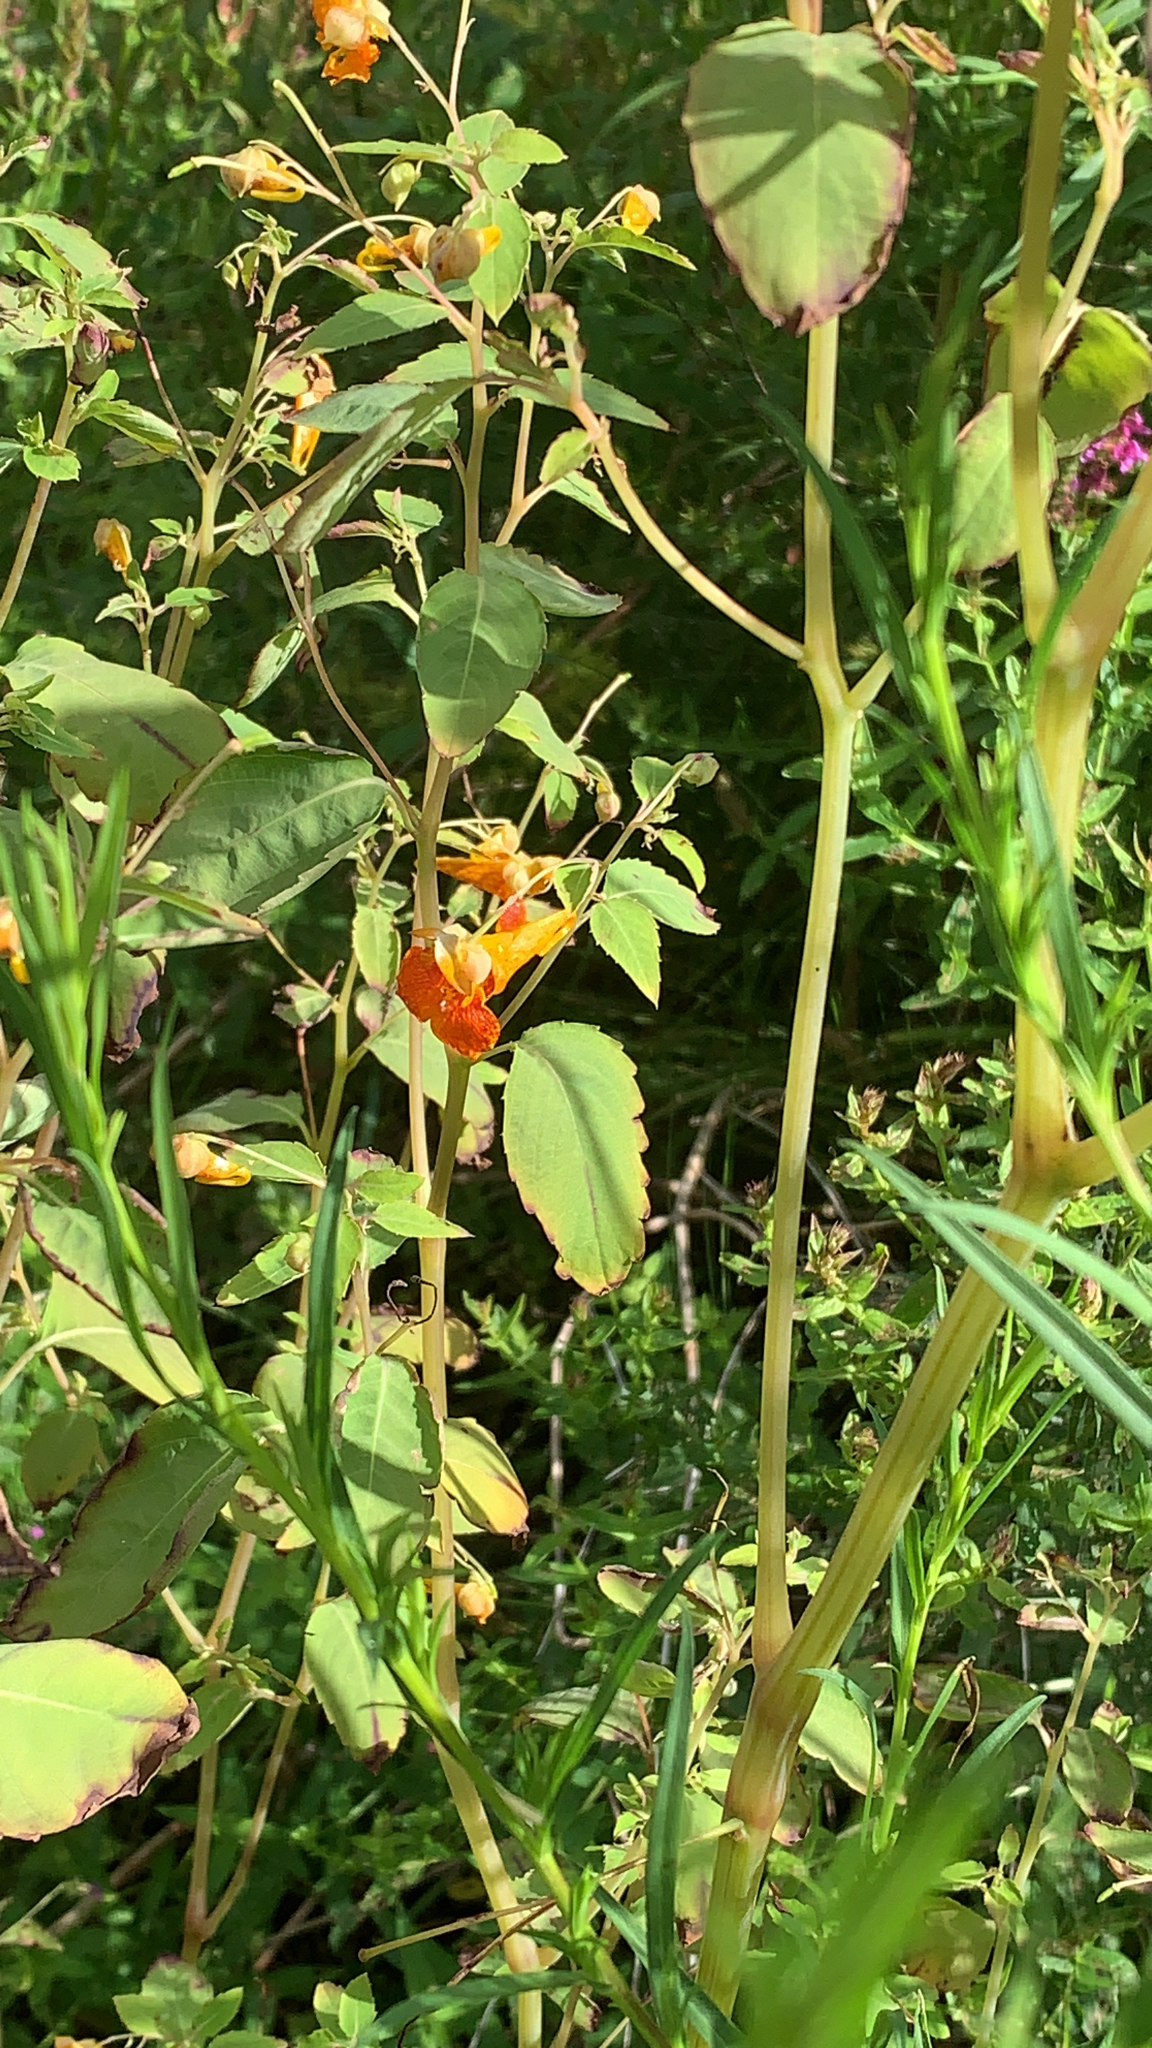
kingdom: Plantae
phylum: Tracheophyta
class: Magnoliopsida
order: Ericales
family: Balsaminaceae
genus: Impatiens
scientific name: Impatiens capensis
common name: Orange balsam
